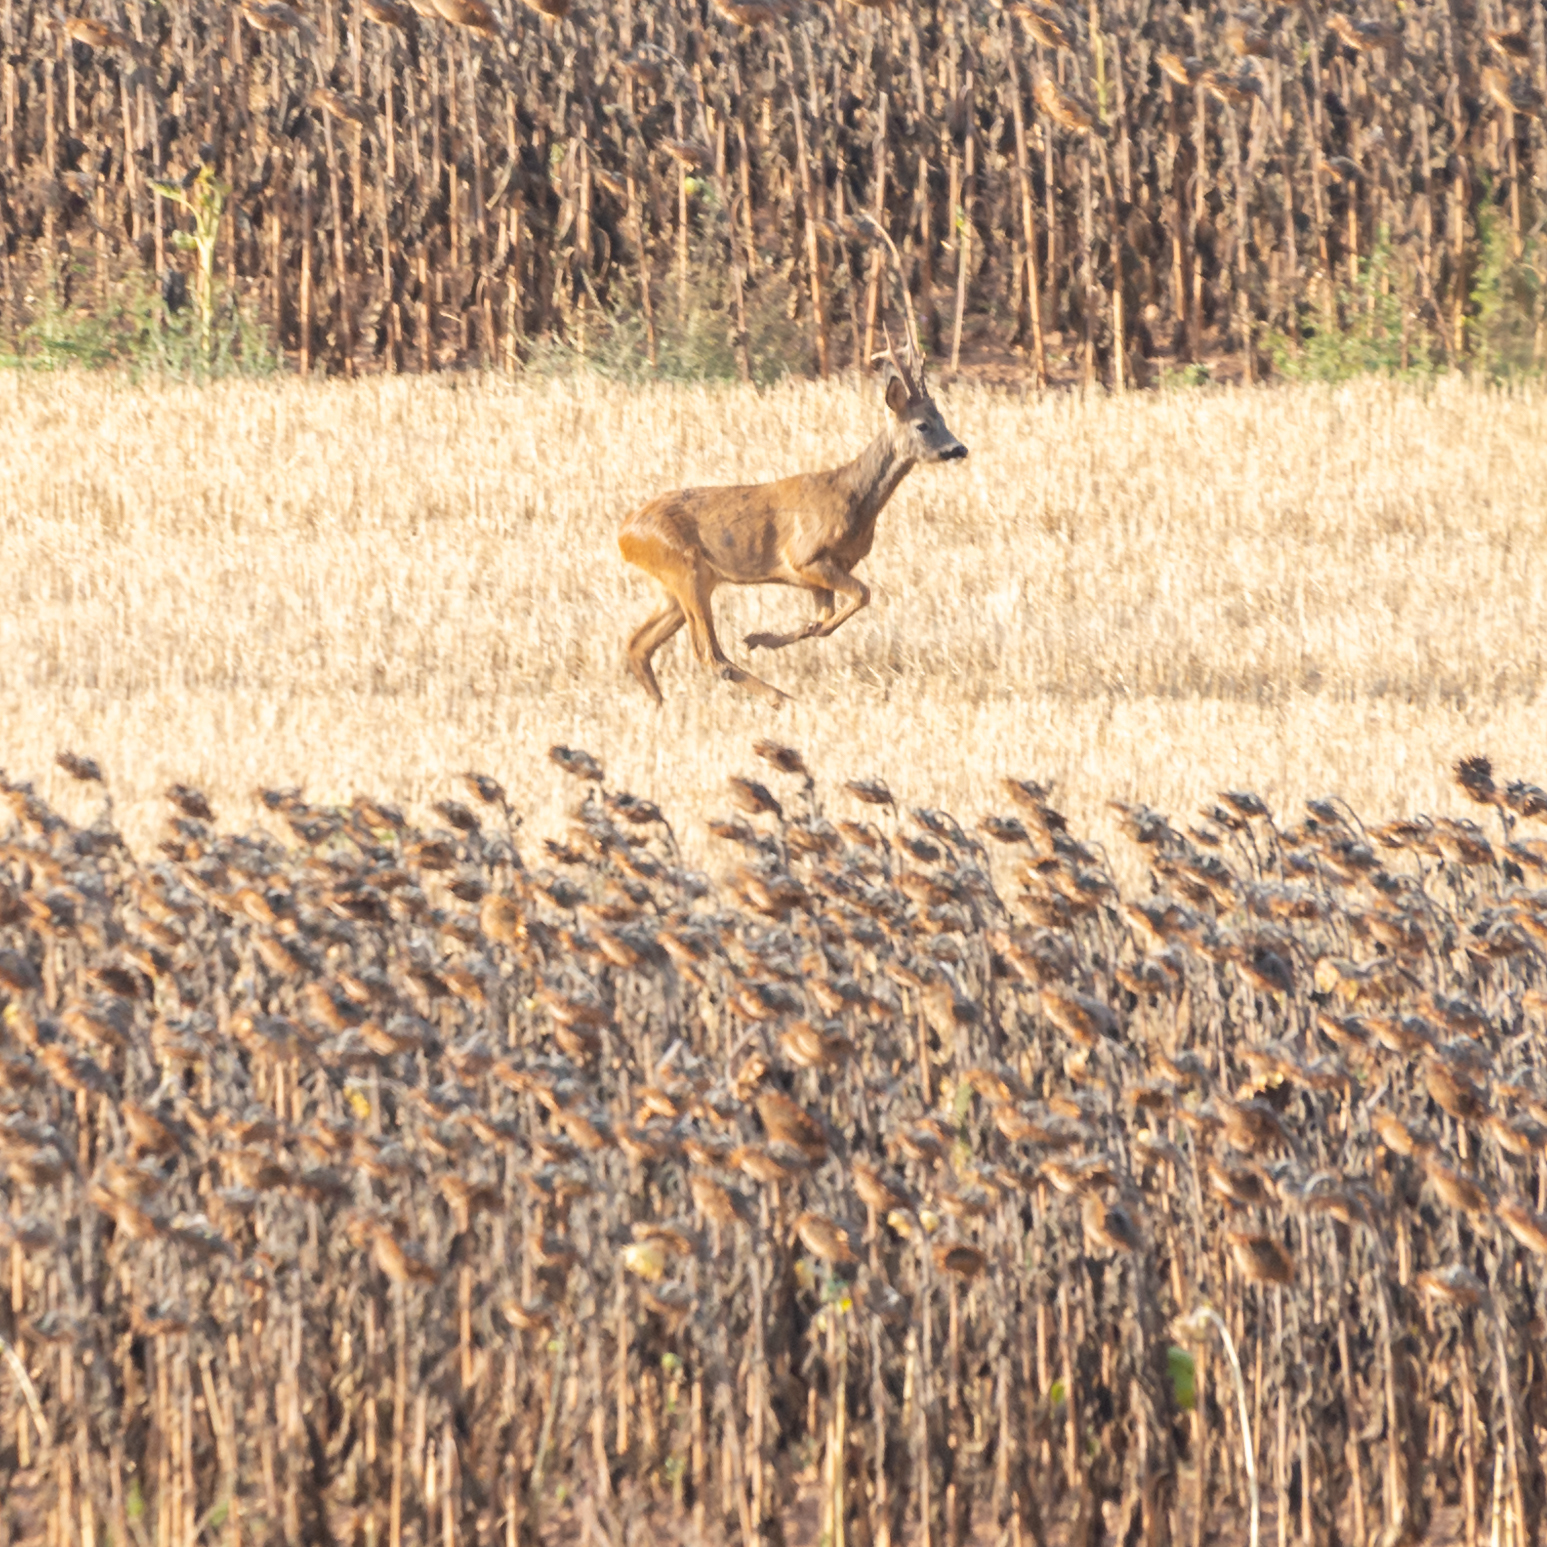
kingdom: Animalia
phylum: Chordata
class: Mammalia
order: Artiodactyla
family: Cervidae
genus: Capreolus
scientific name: Capreolus capreolus
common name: Western roe deer
